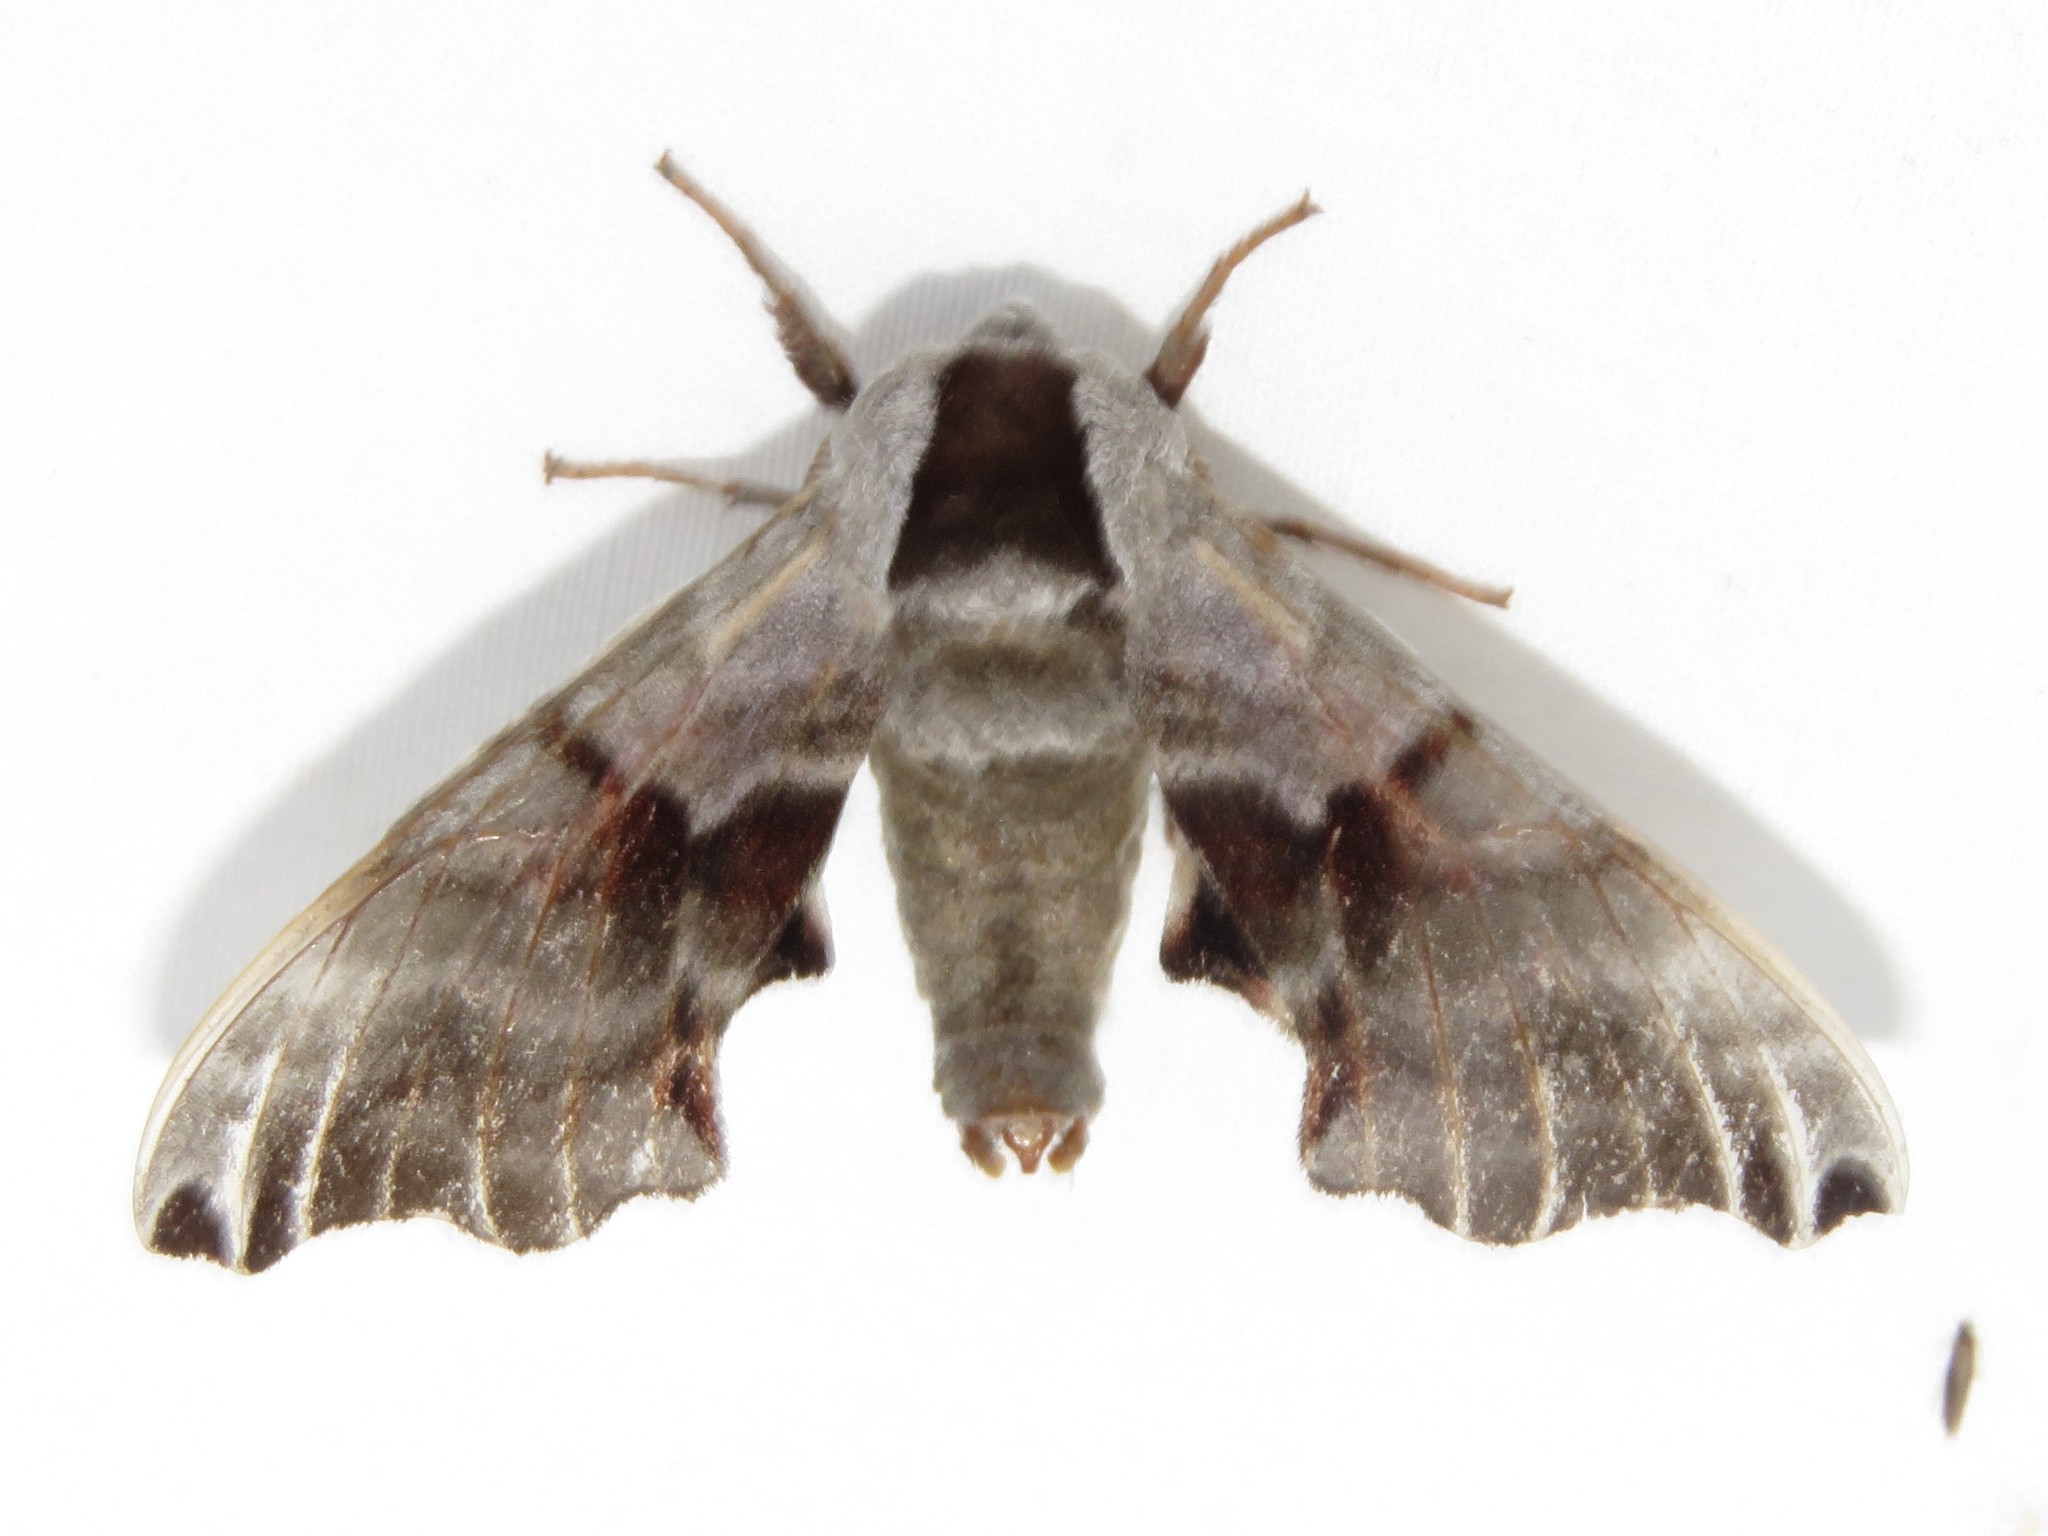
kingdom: Animalia
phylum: Arthropoda
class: Insecta
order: Lepidoptera
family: Sphingidae
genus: Smerinthus
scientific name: Smerinthus jamaicensis
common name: Twin spotted sphinx
